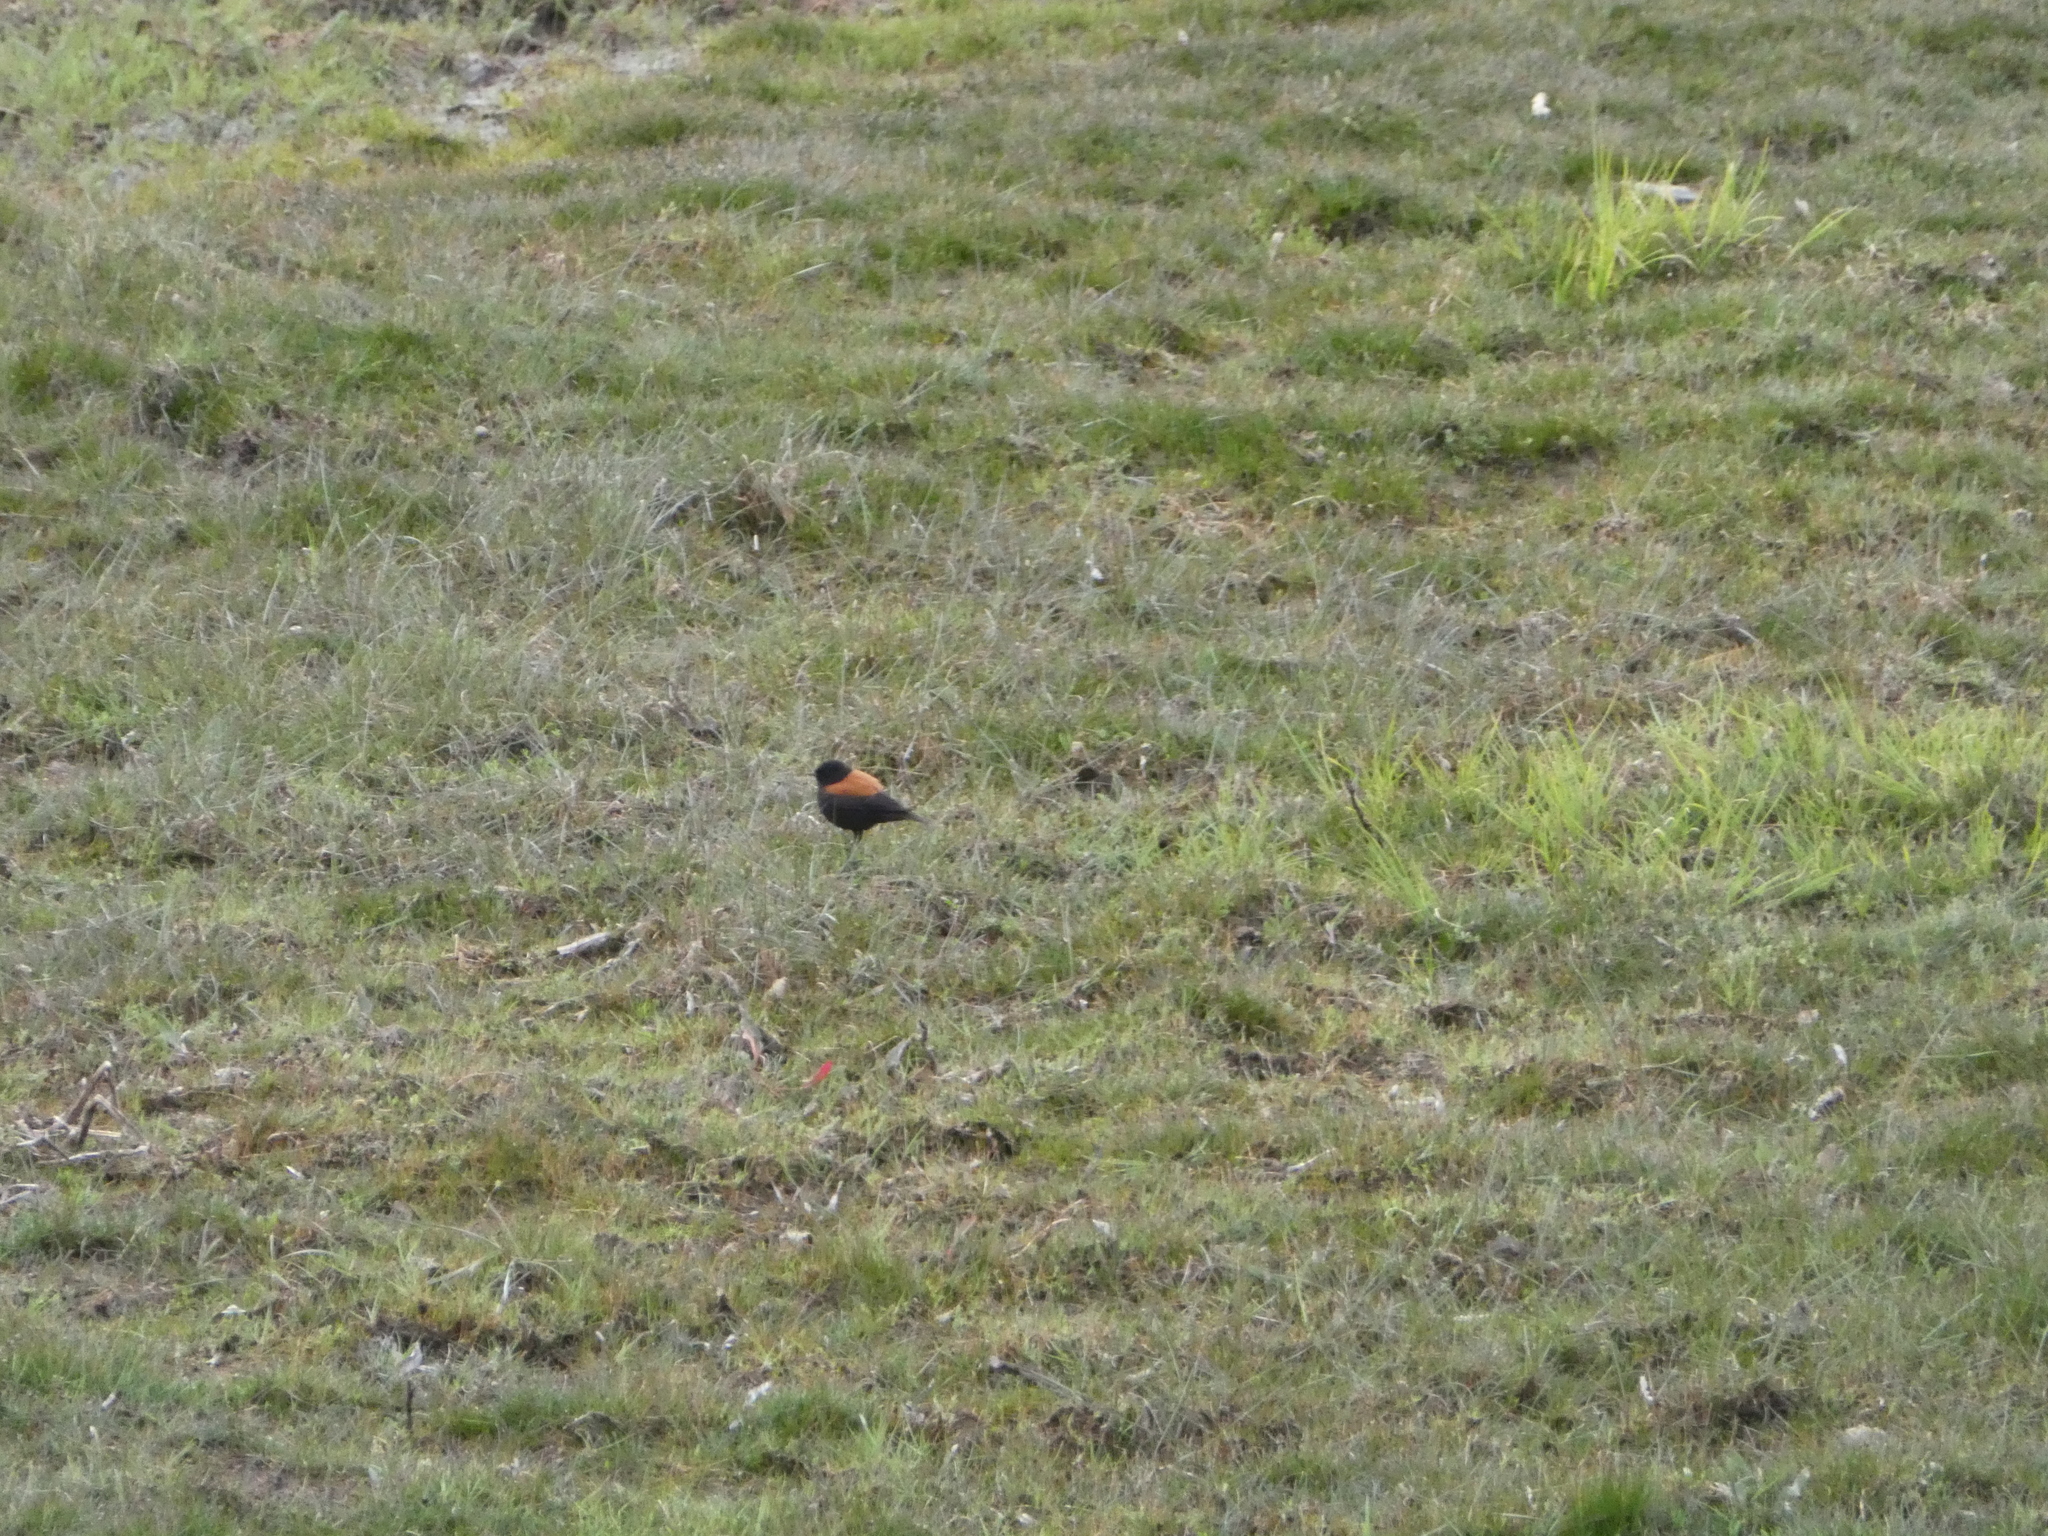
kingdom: Animalia
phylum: Chordata
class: Aves
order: Passeriformes
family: Tyrannidae
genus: Lessonia
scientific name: Lessonia rufa
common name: Austral negrito
